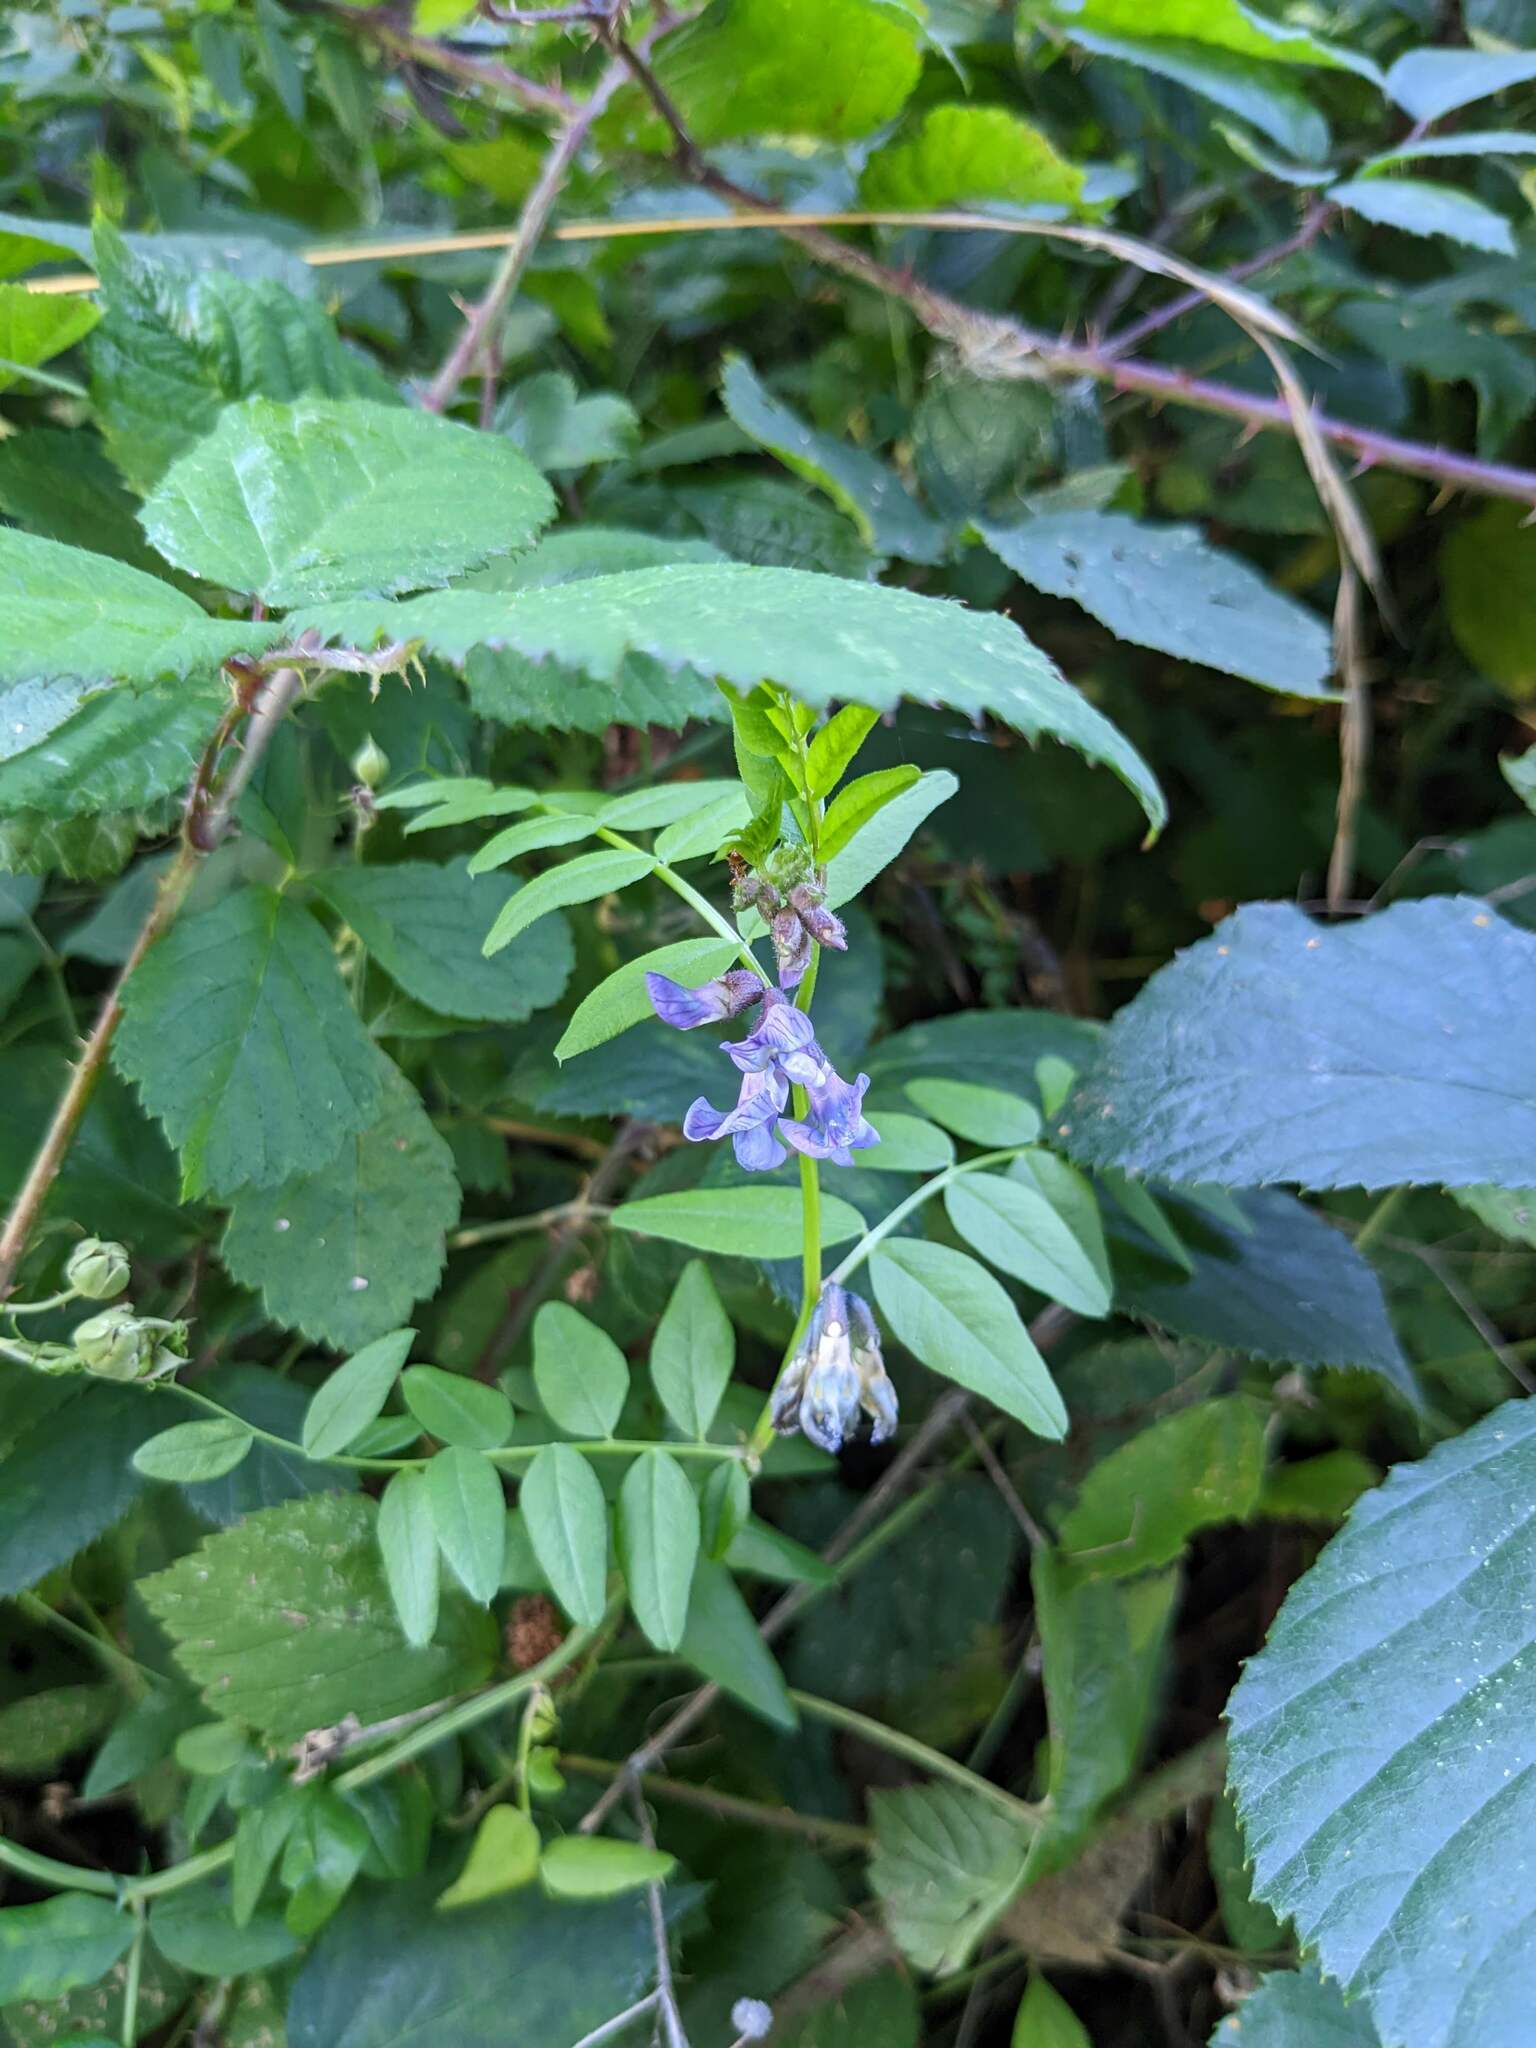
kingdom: Plantae
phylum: Tracheophyta
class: Magnoliopsida
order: Fabales
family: Fabaceae
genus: Vicia
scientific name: Vicia sepium
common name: Bush vetch
